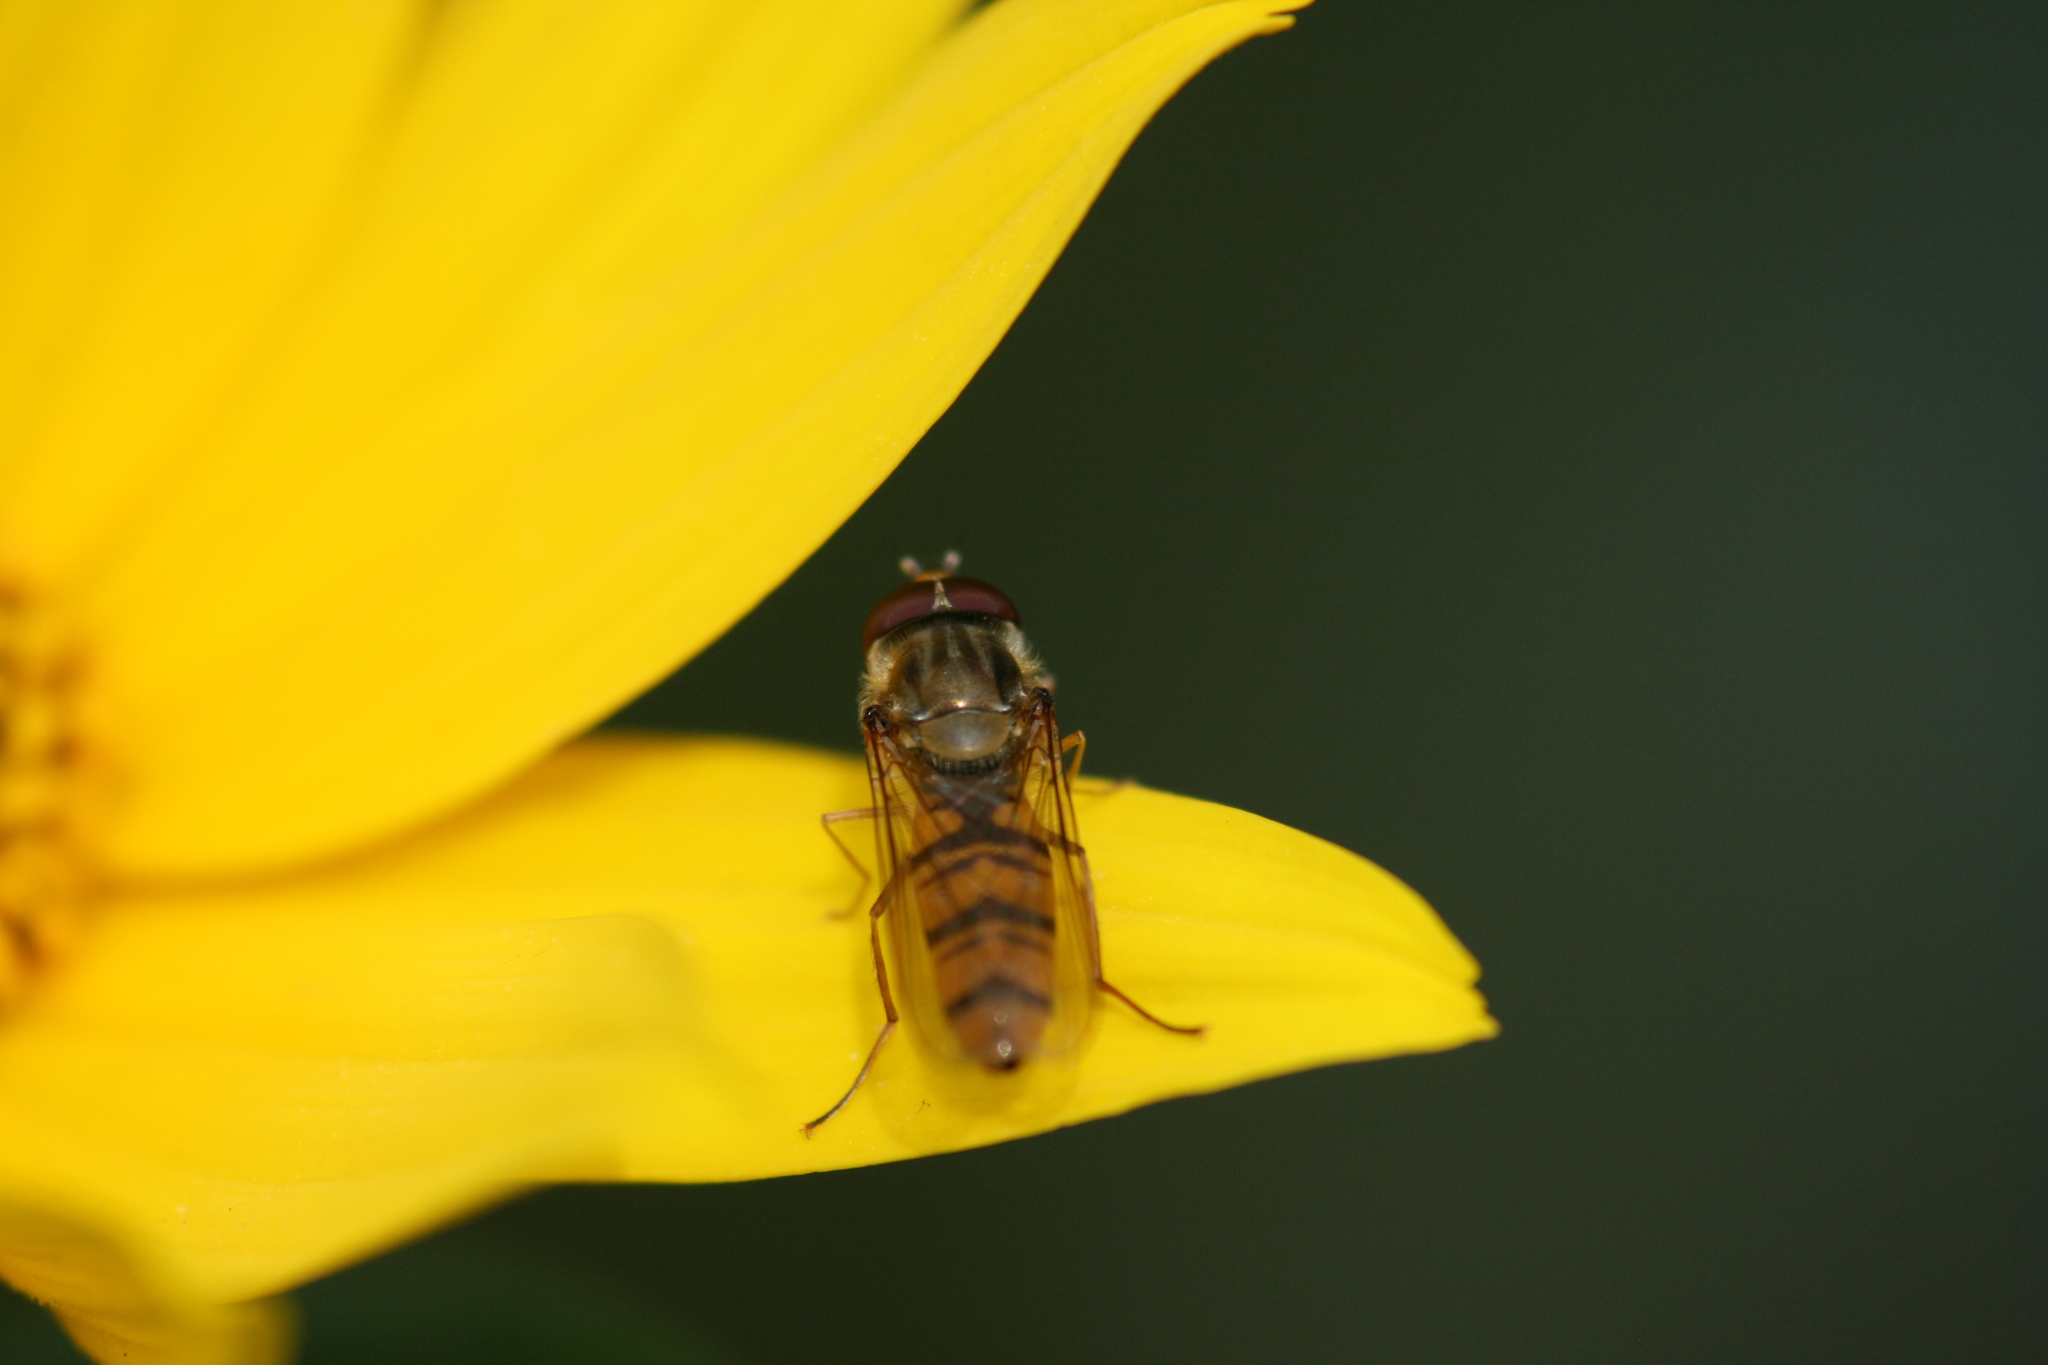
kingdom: Animalia
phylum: Arthropoda
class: Insecta
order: Diptera
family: Syrphidae
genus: Episyrphus
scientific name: Episyrphus balteatus
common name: Marmalade hoverfly
